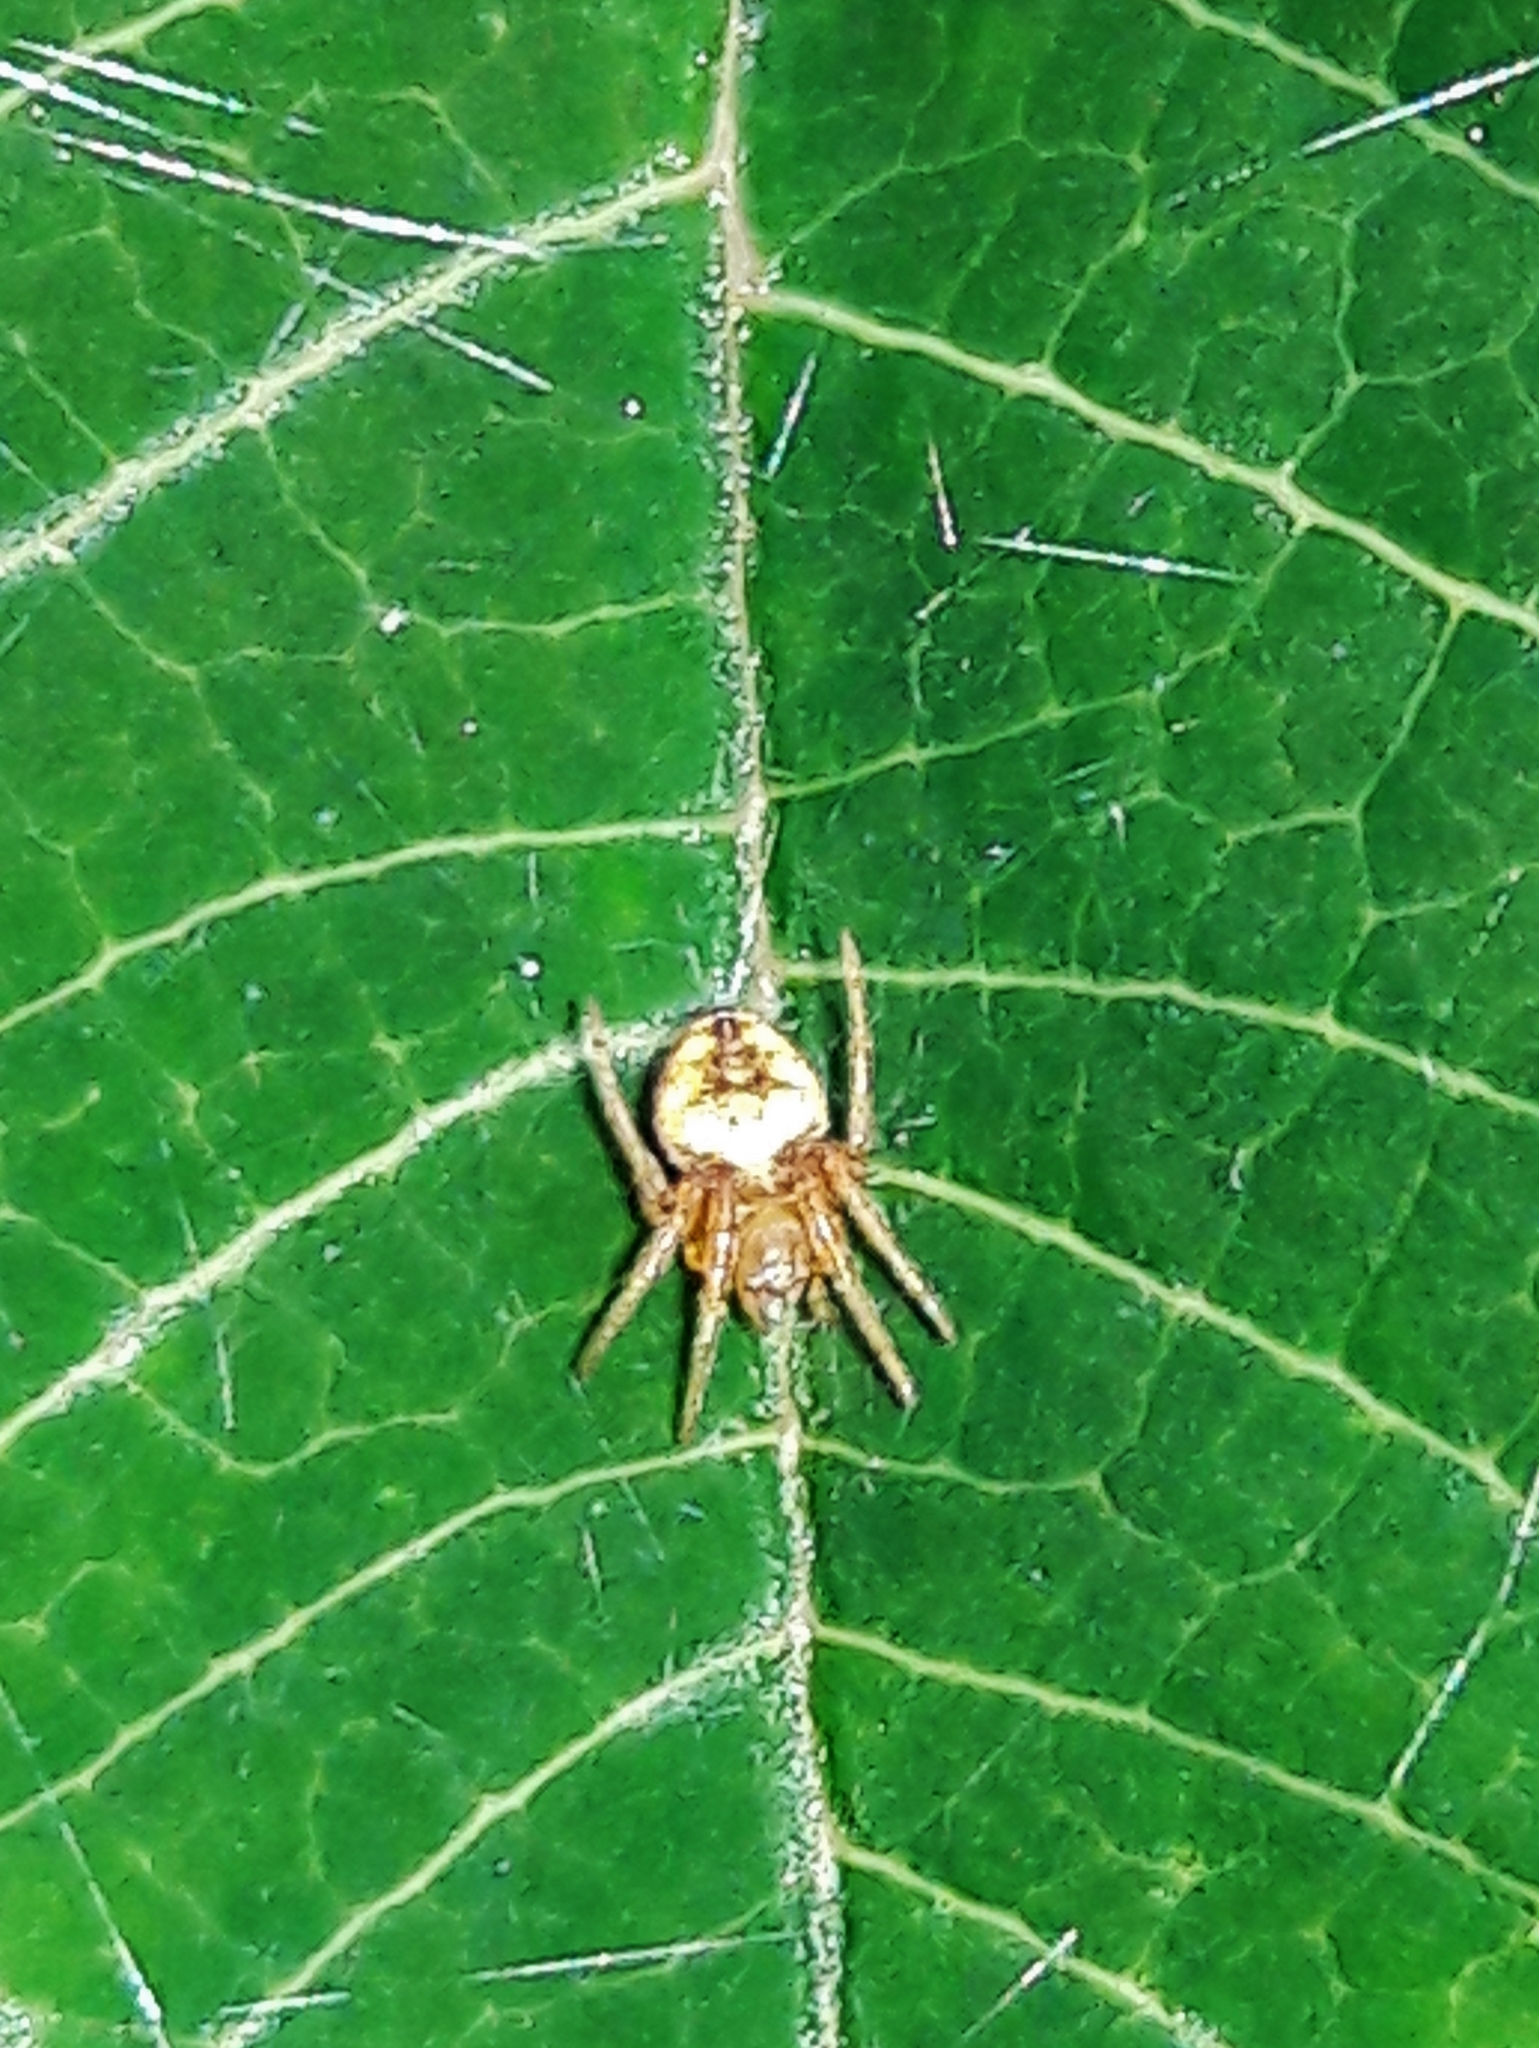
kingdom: Animalia
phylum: Arthropoda
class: Arachnida
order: Araneae
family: Araneidae
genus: Eriophora
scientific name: Eriophora edax
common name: Orb weavers
